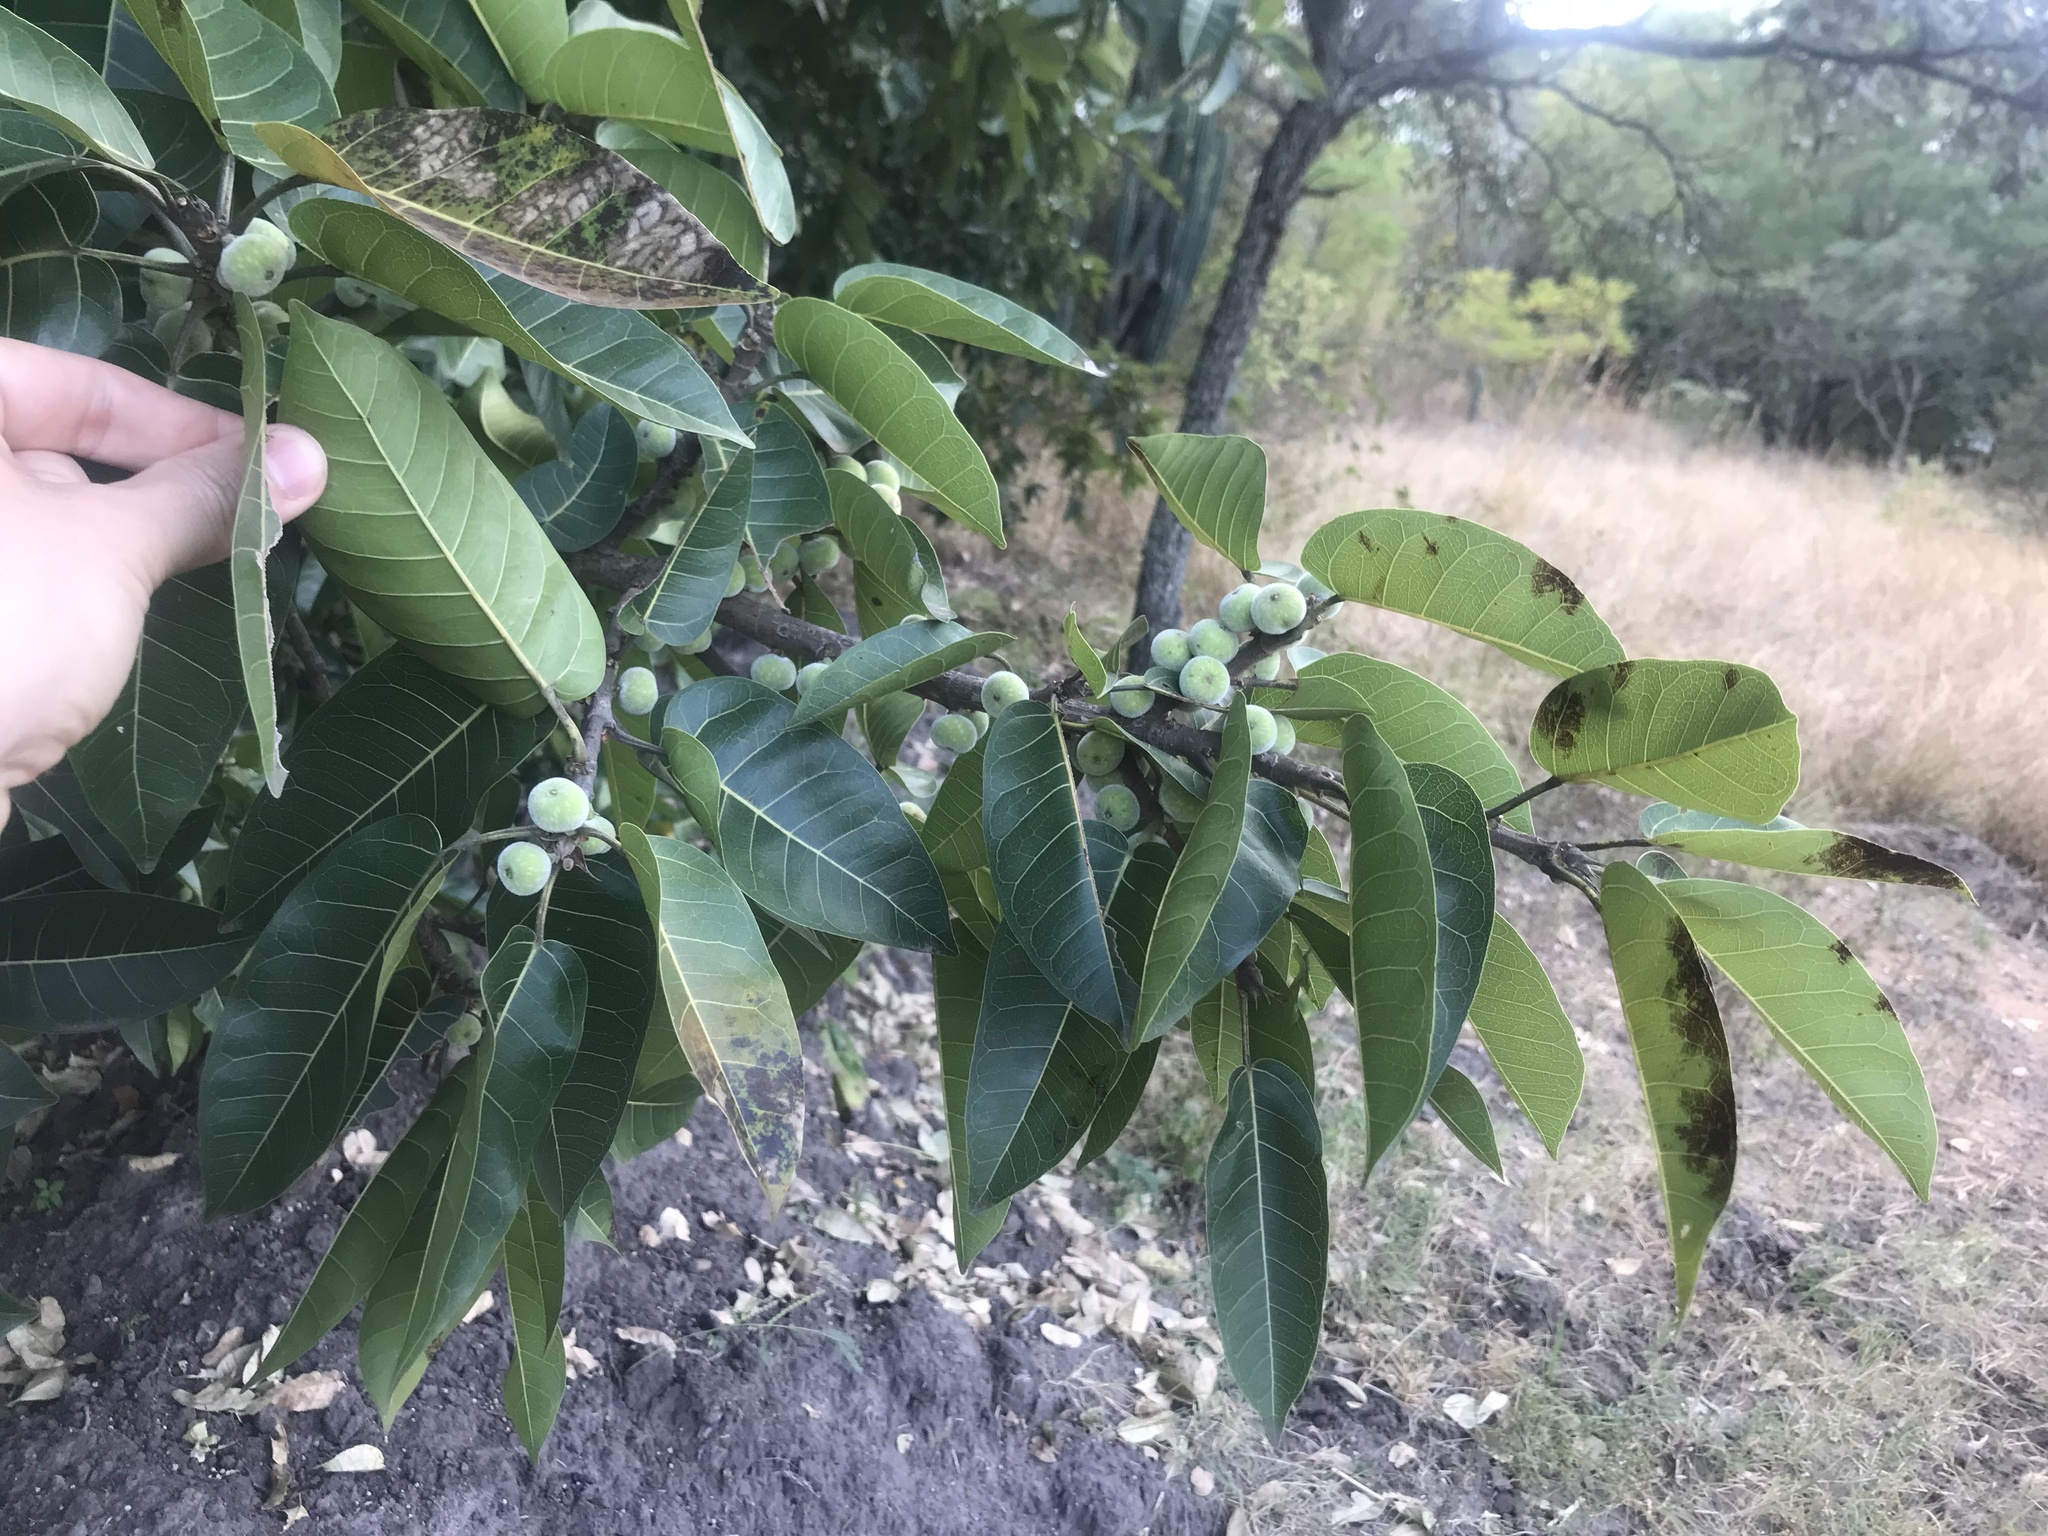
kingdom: Plantae
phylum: Tracheophyta
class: Magnoliopsida
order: Rosales
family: Moraceae
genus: Ficus
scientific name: Ficus ingens
